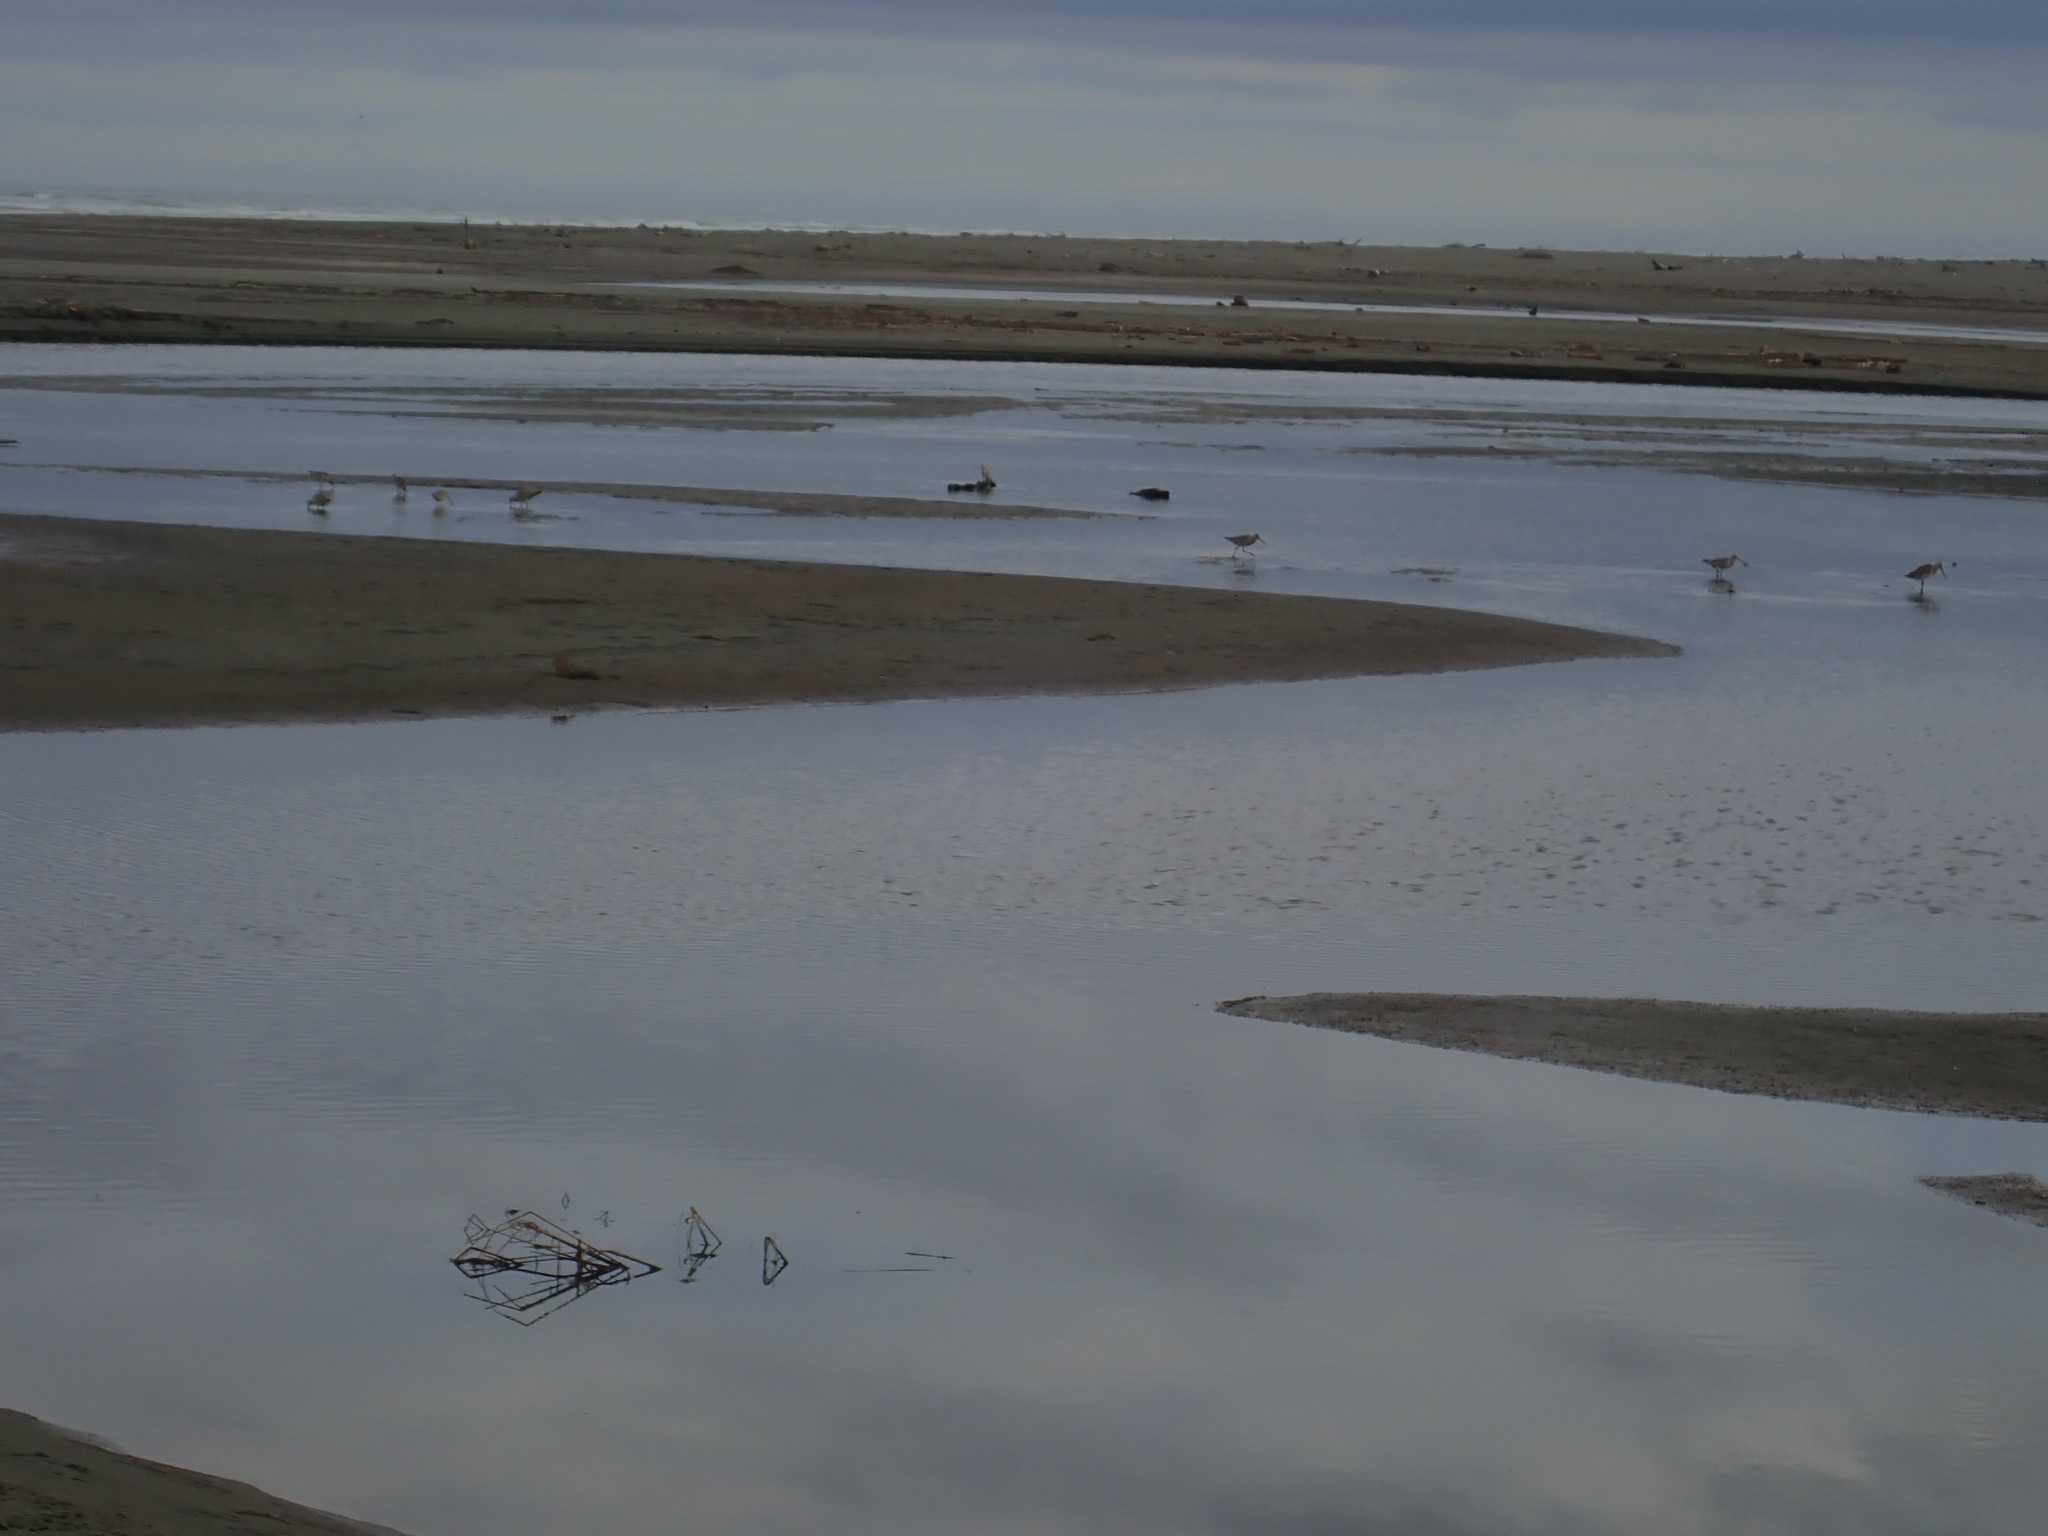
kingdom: Animalia
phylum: Chordata
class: Aves
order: Charadriiformes
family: Scolopacidae
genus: Limosa
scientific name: Limosa lapponica
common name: Bar-tailed godwit
